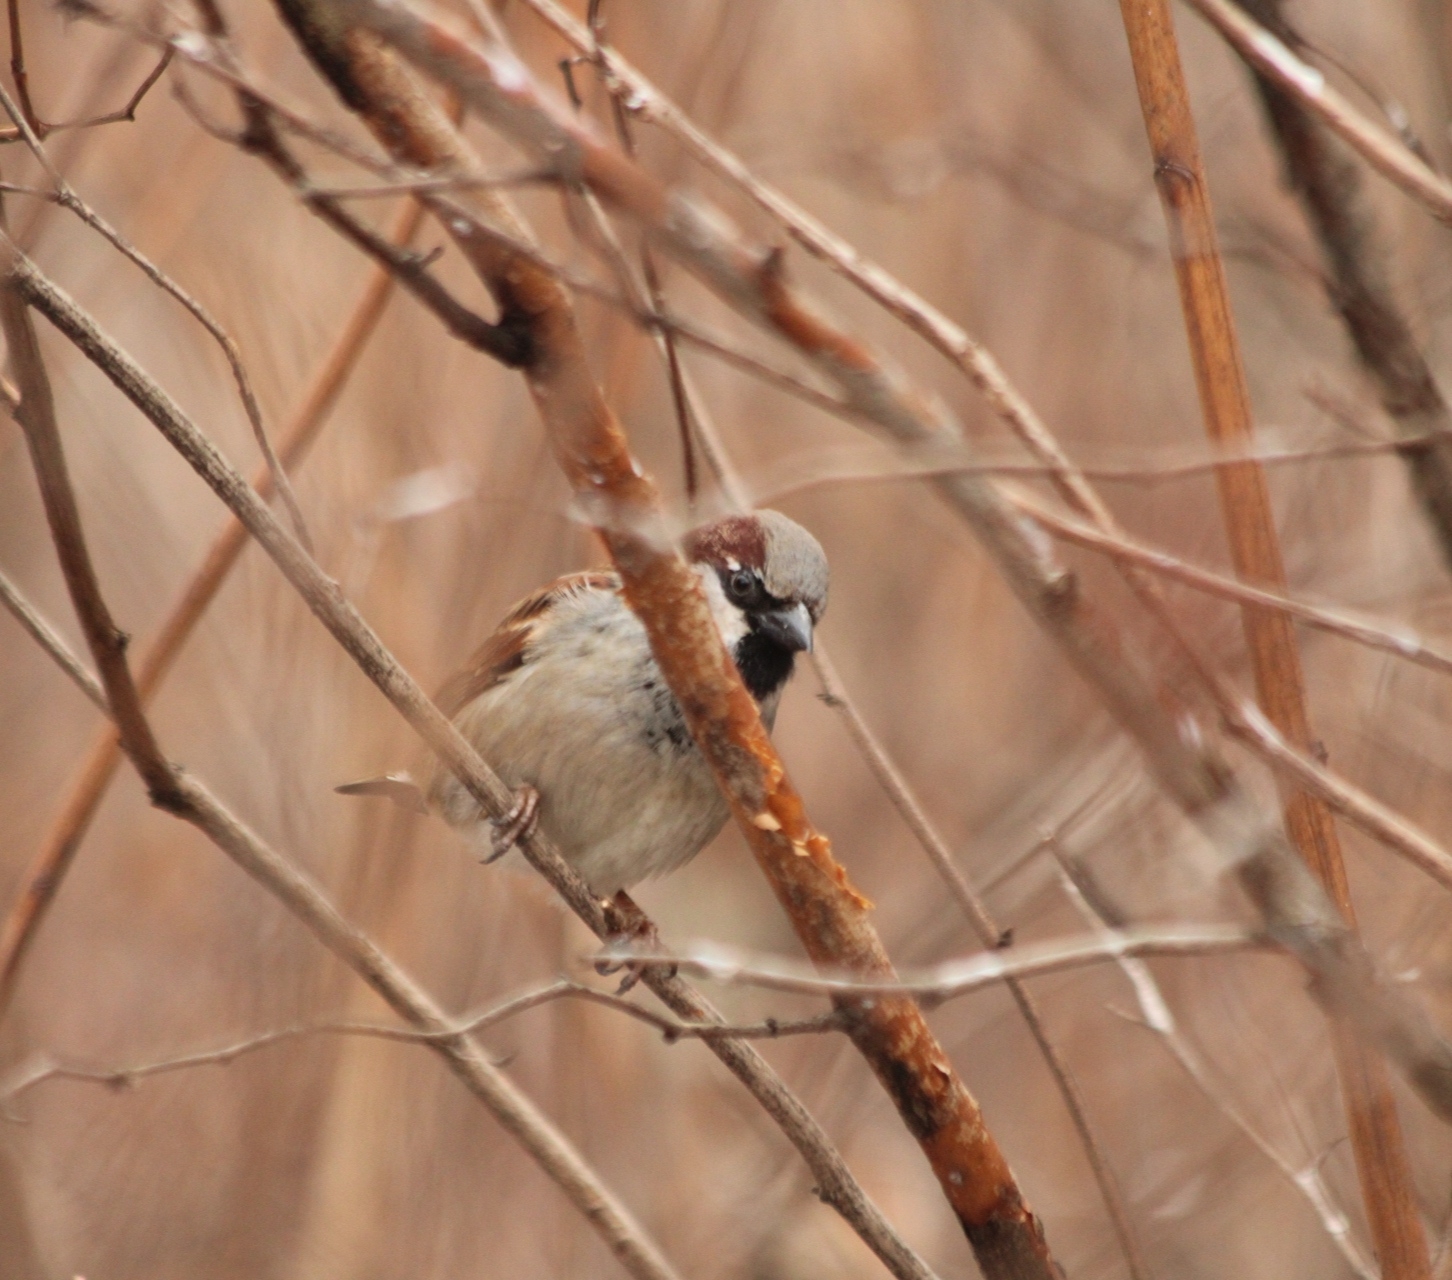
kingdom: Animalia
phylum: Chordata
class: Aves
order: Passeriformes
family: Passeridae
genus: Passer
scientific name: Passer domesticus
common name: House sparrow
